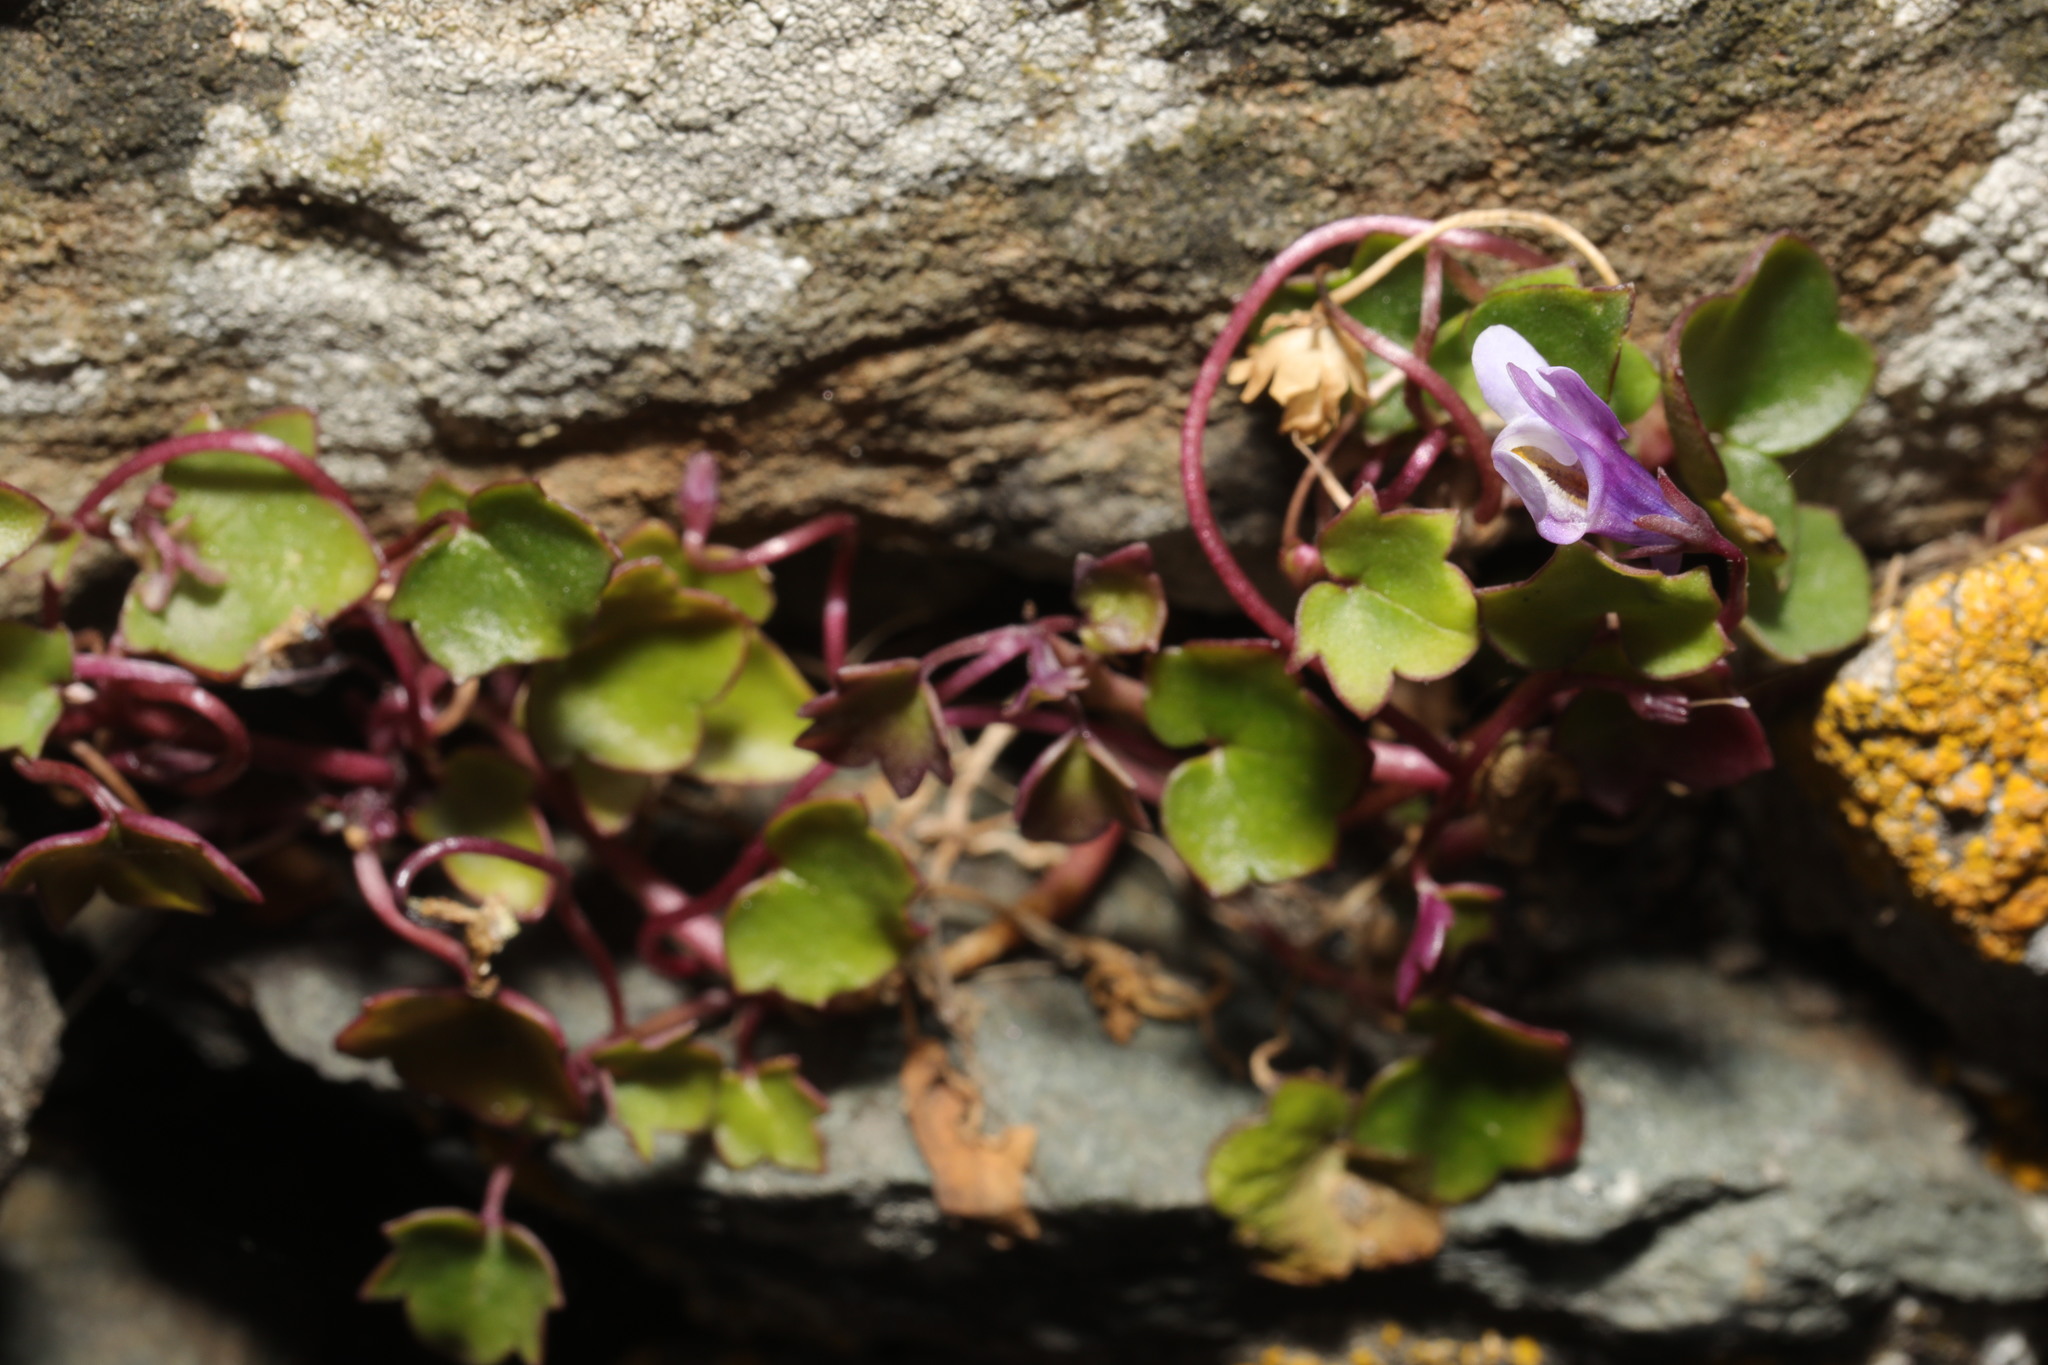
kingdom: Plantae
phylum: Tracheophyta
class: Magnoliopsida
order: Lamiales
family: Plantaginaceae
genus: Cymbalaria
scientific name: Cymbalaria muralis
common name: Ivy-leaved toadflax
